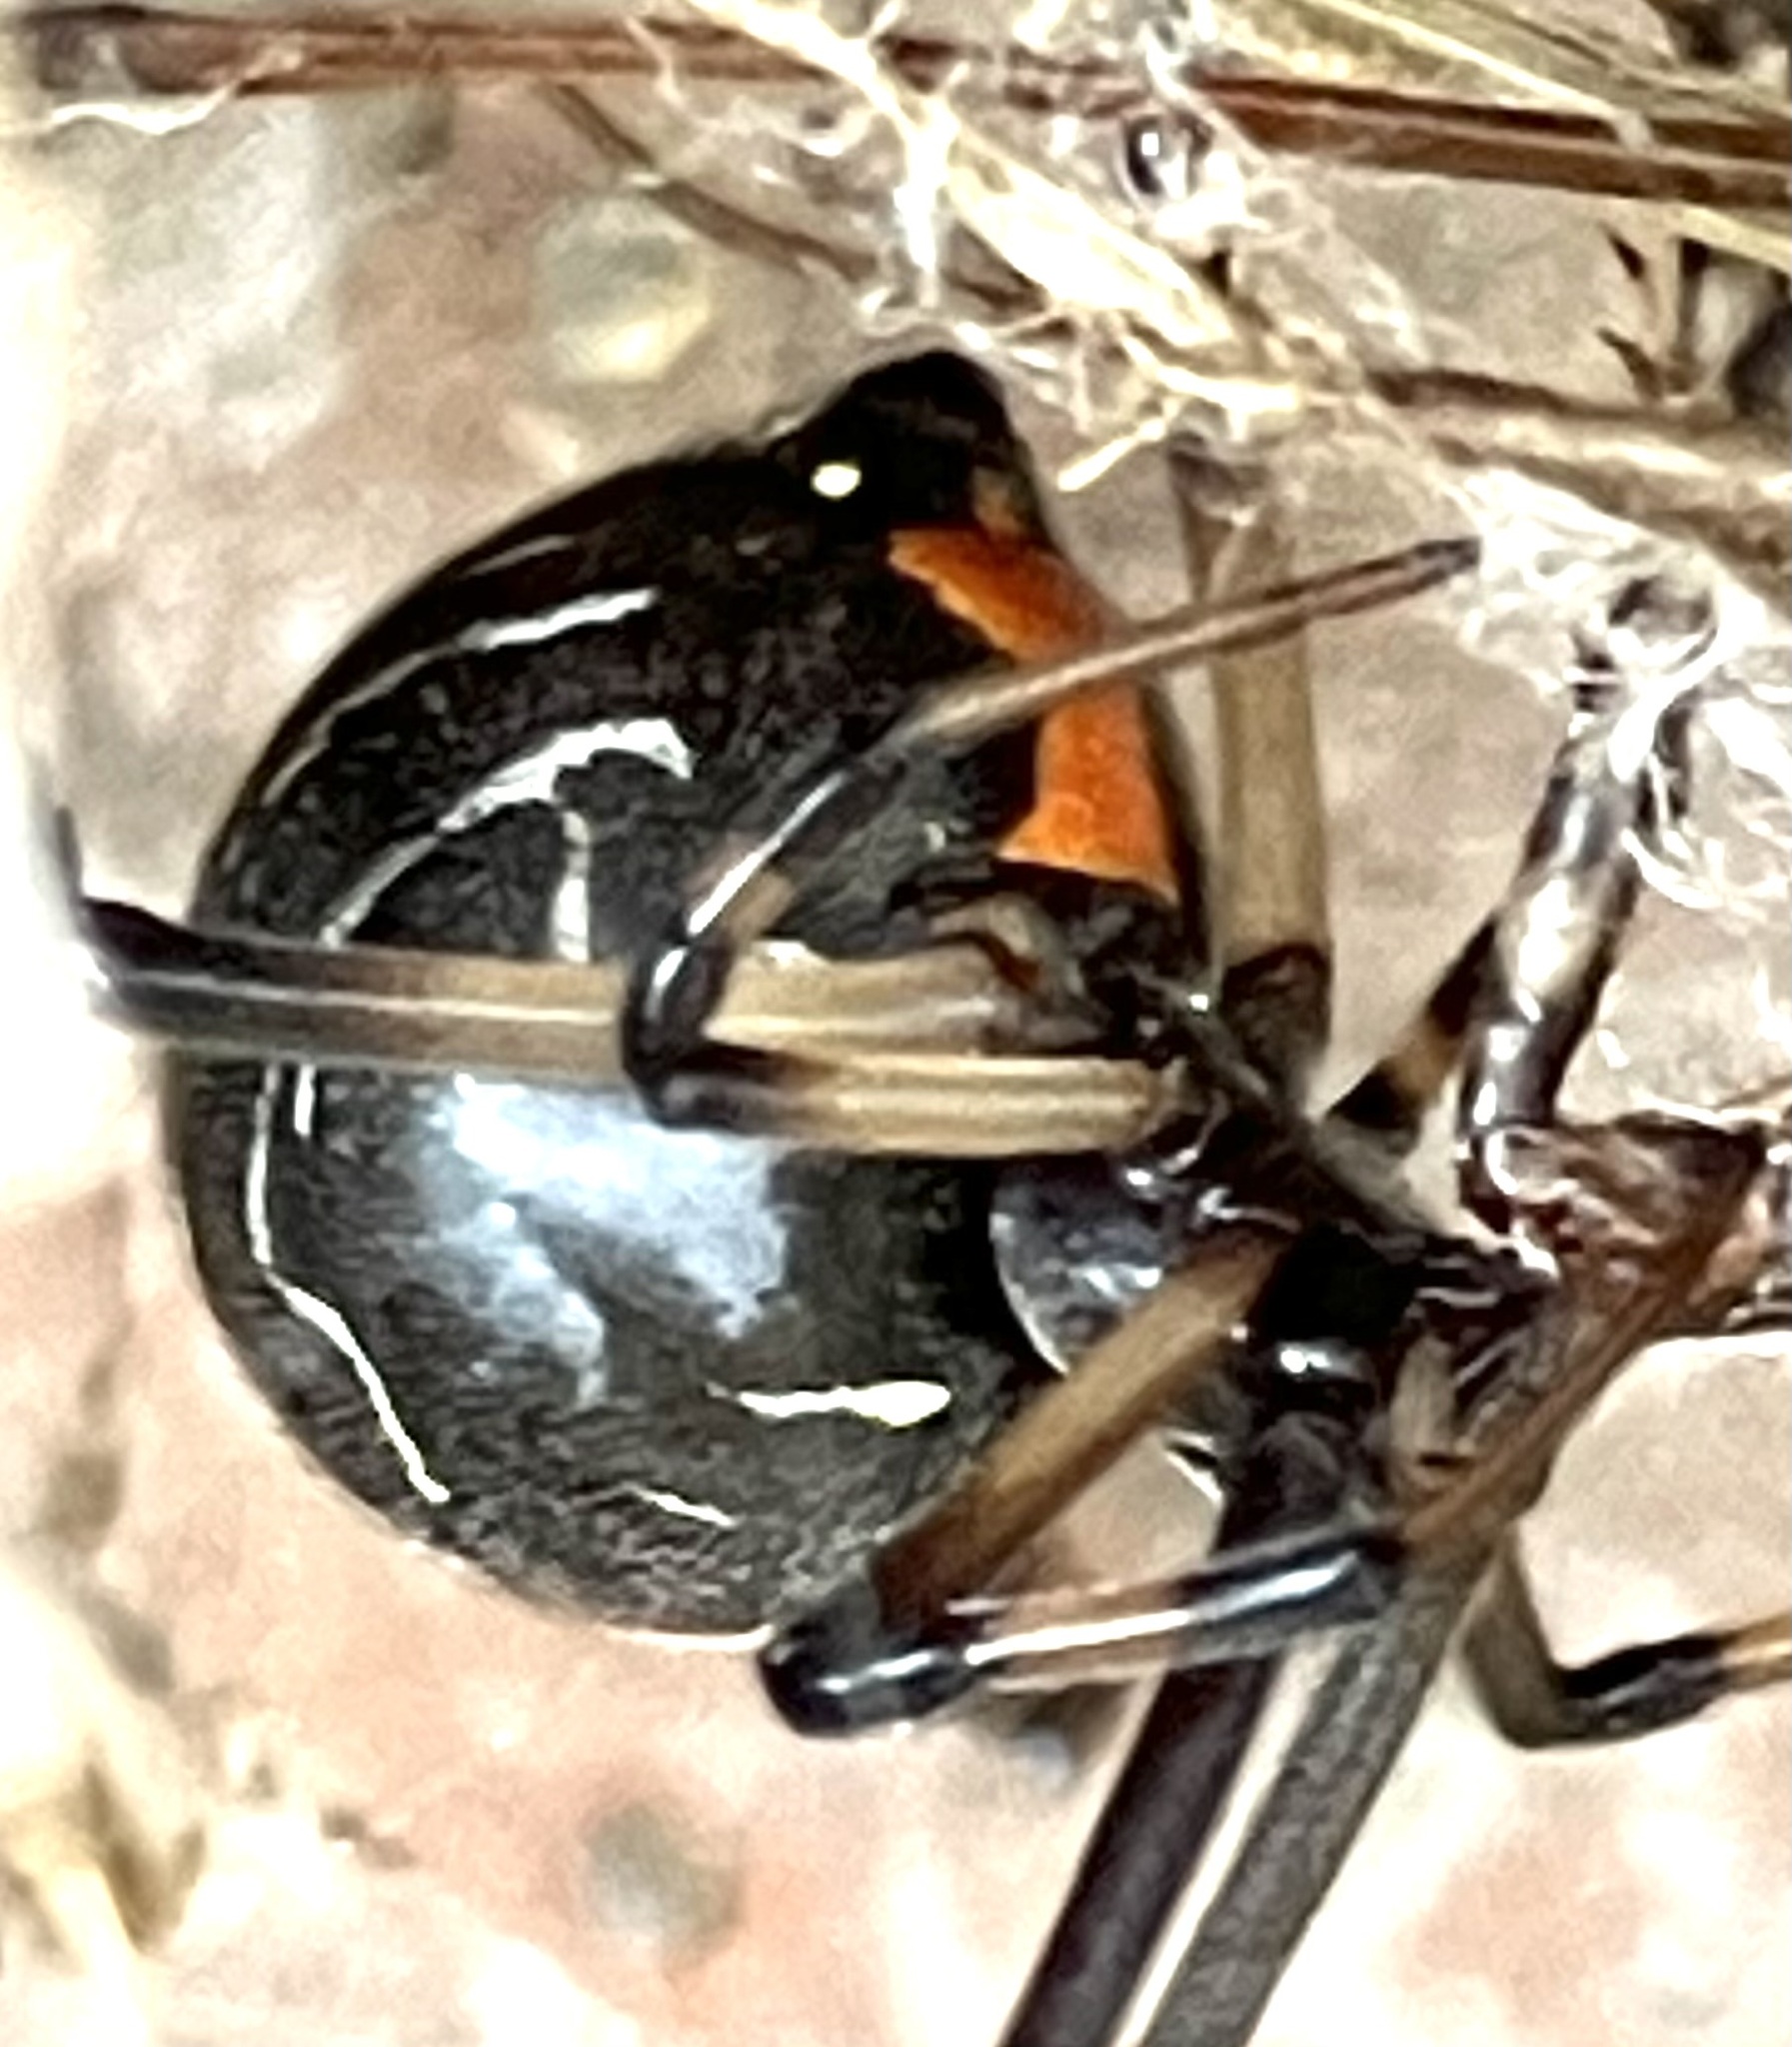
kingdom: Animalia
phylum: Arthropoda
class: Arachnida
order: Araneae
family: Theridiidae
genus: Latrodectus
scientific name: Latrodectus geometricus
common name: Brown widow spider
